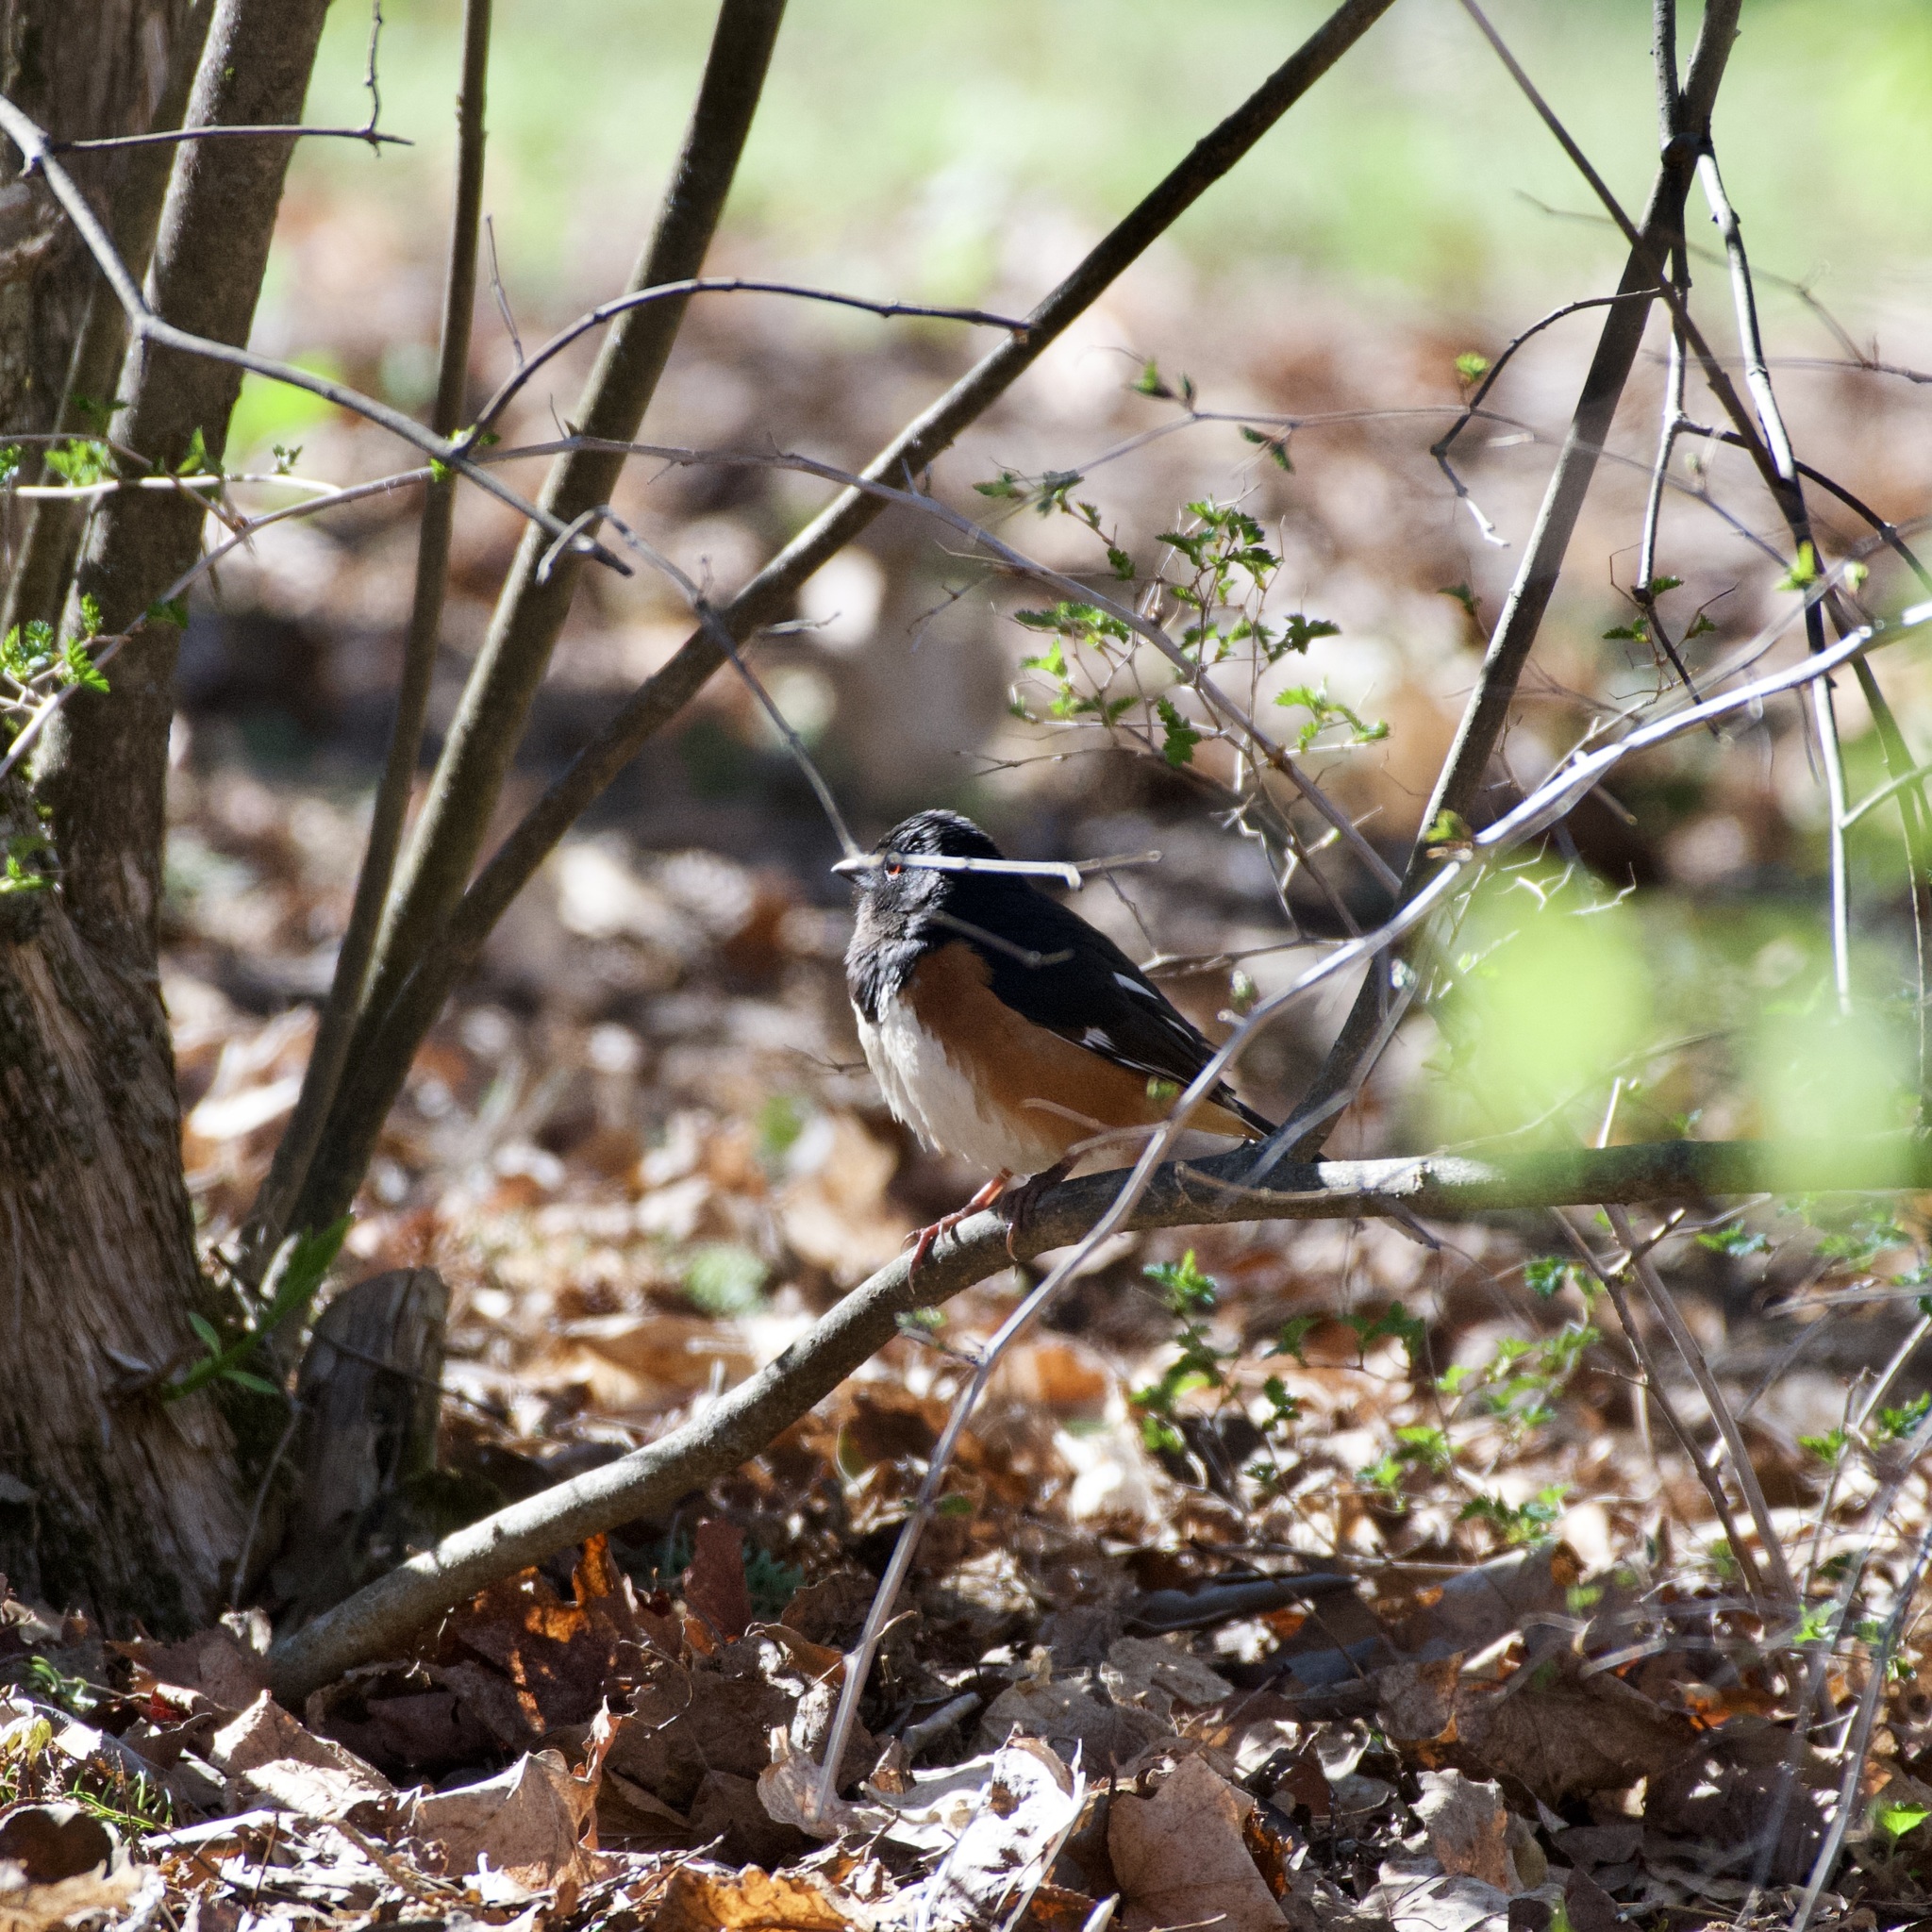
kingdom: Animalia
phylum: Chordata
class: Aves
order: Passeriformes
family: Passerellidae
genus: Pipilo
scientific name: Pipilo erythrophthalmus
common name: Eastern towhee
